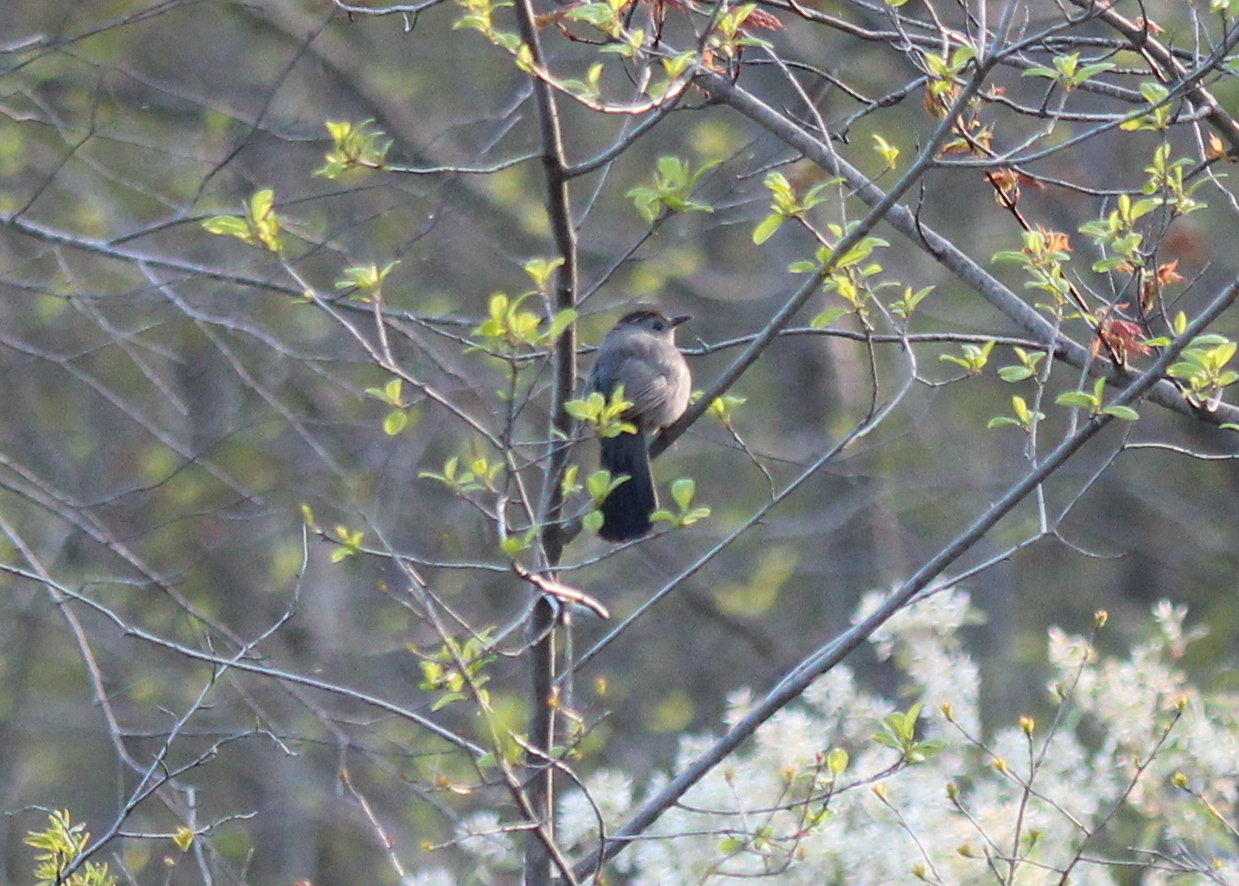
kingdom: Animalia
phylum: Chordata
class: Aves
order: Passeriformes
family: Mimidae
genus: Dumetella
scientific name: Dumetella carolinensis
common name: Gray catbird
